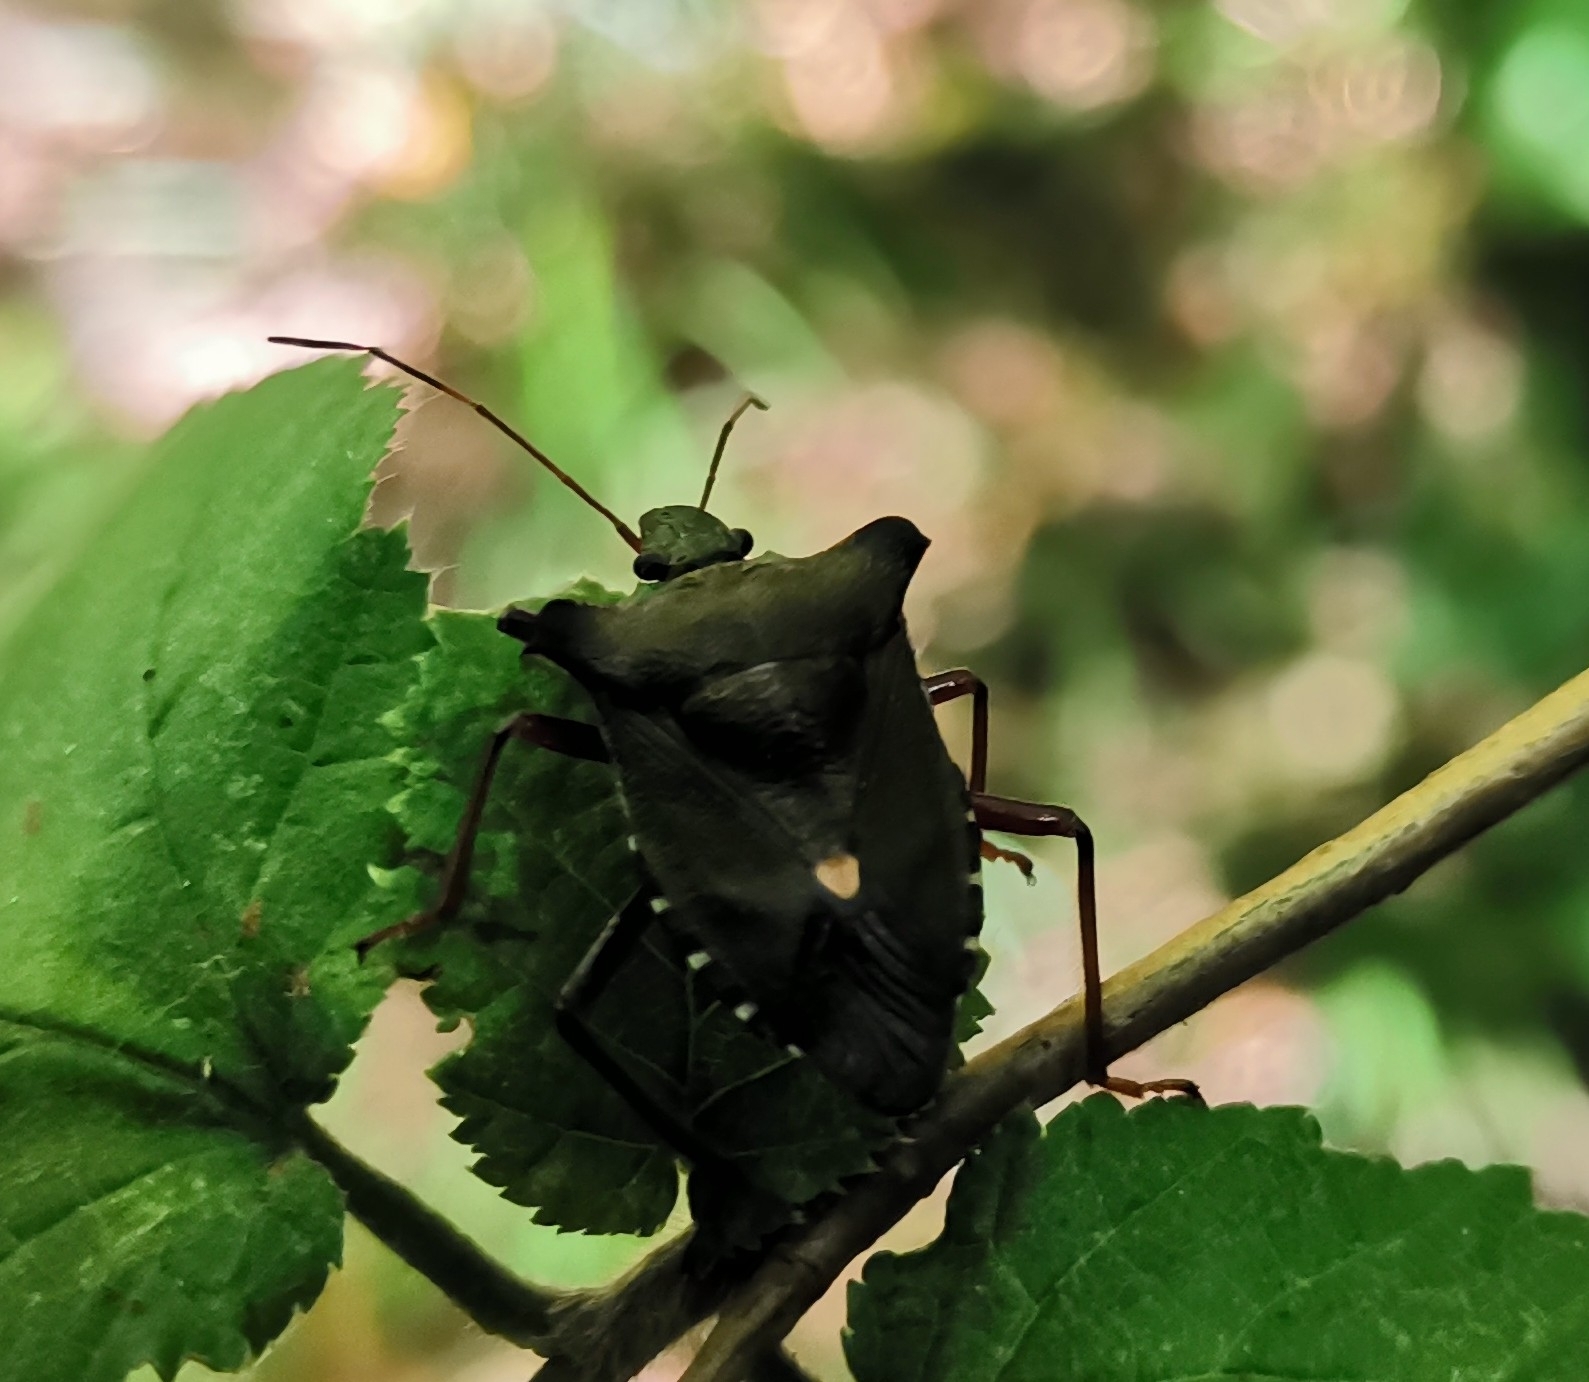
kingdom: Animalia
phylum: Arthropoda
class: Insecta
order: Hemiptera
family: Pentatomidae
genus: Pentatoma
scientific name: Pentatoma rufipes
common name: Forest bug
